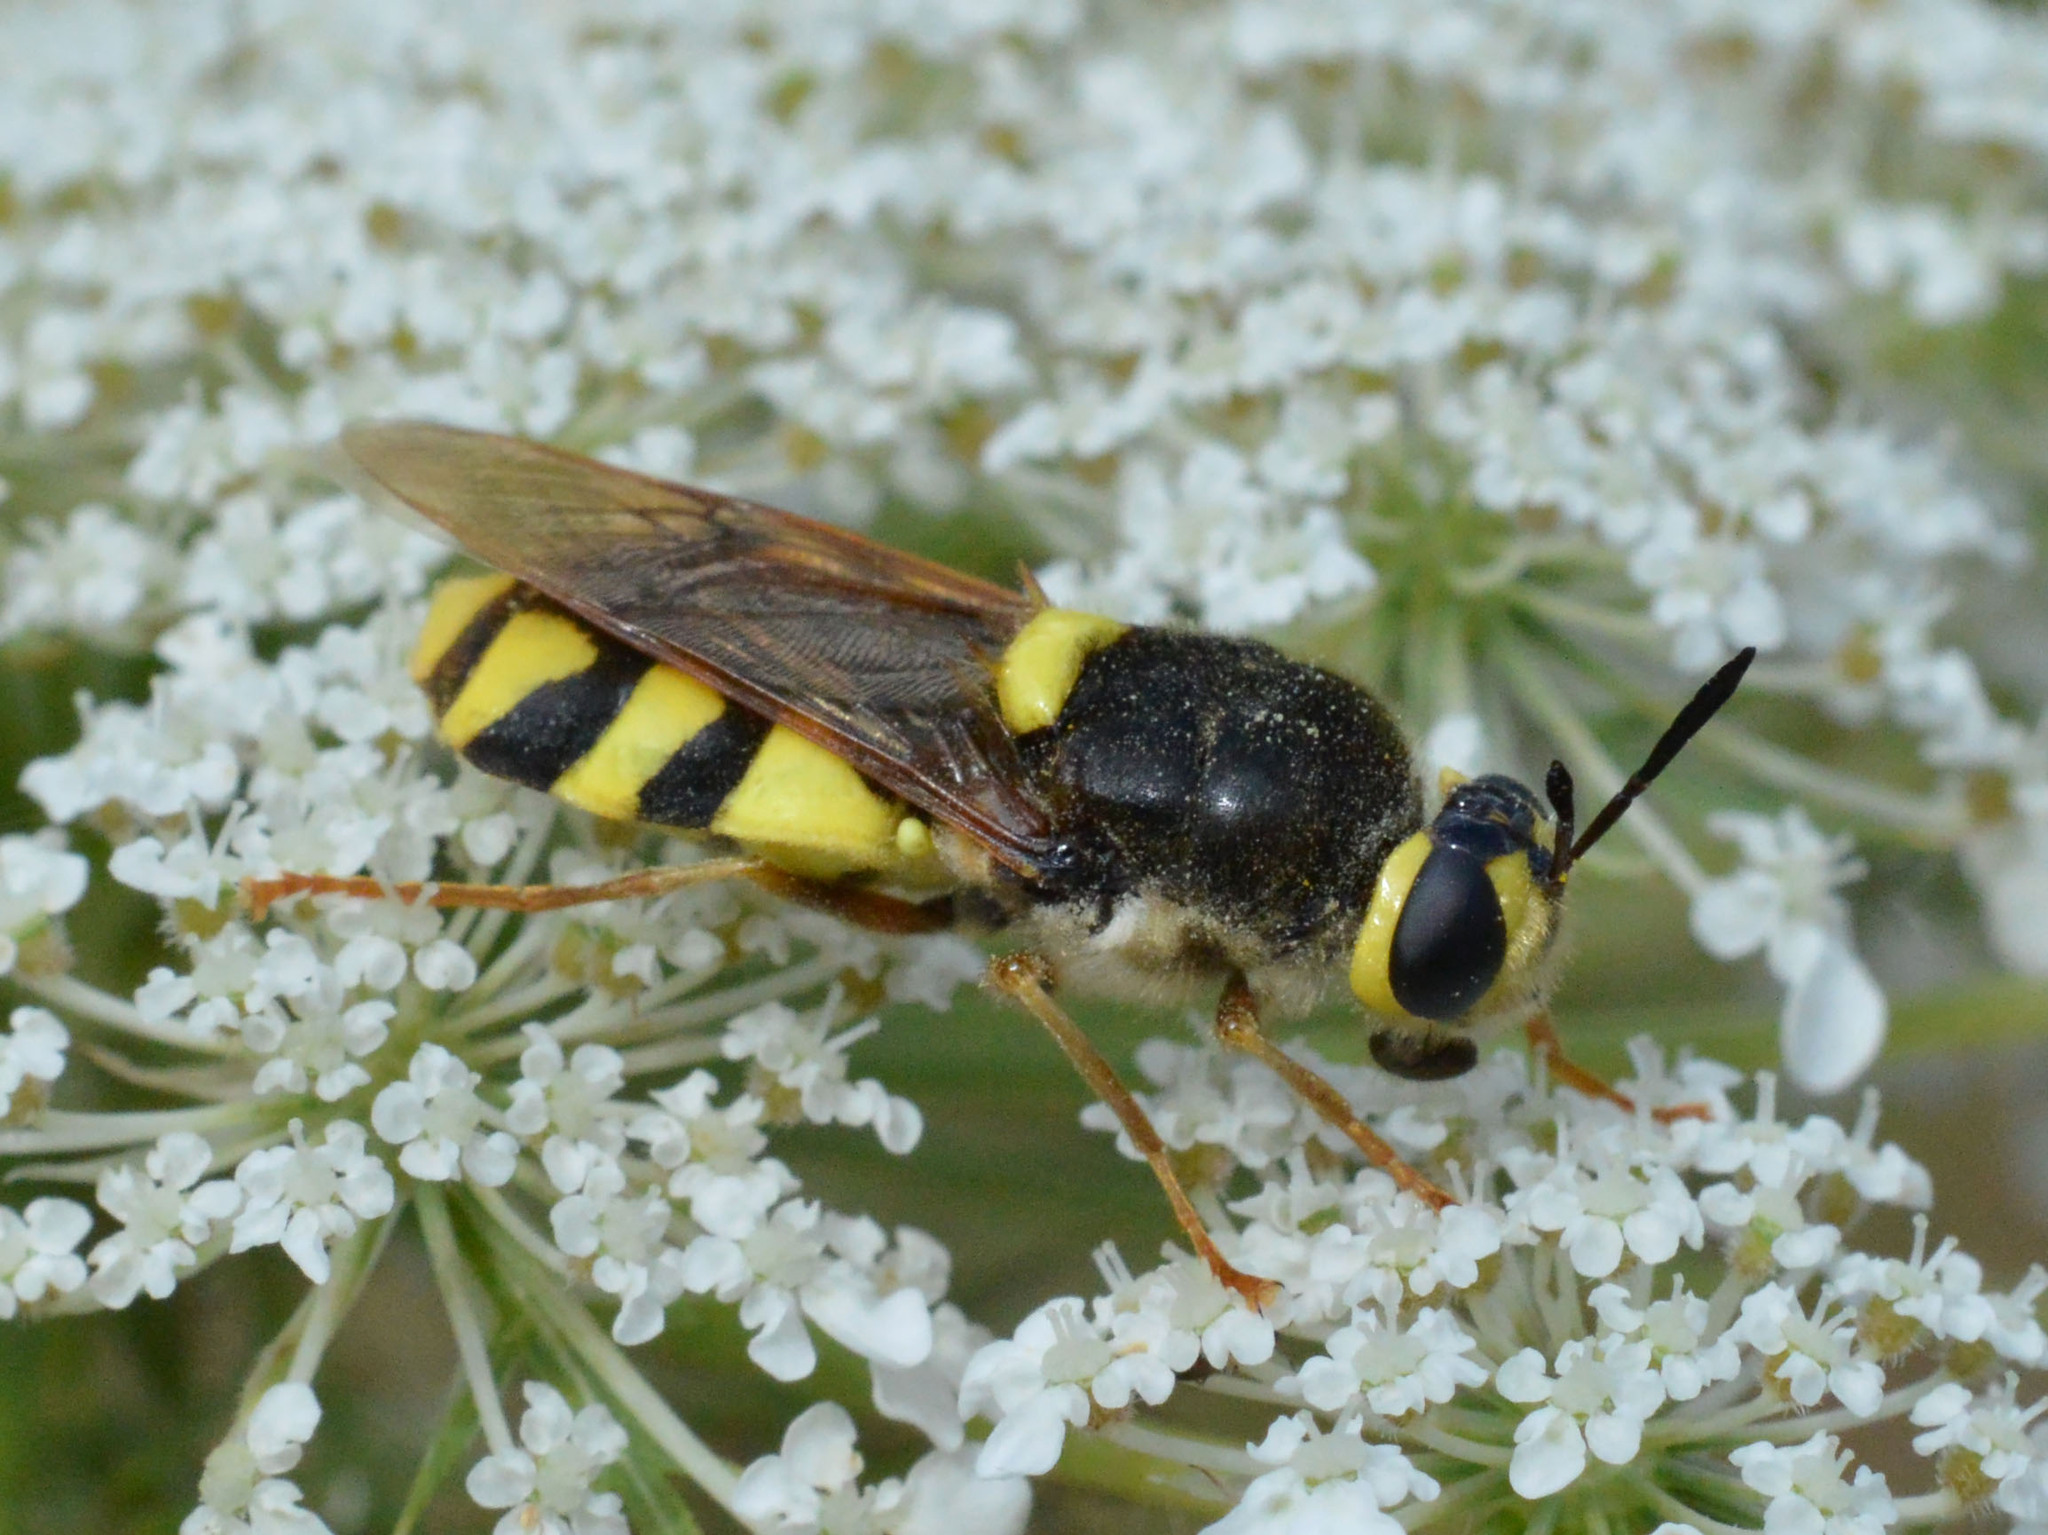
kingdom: Animalia
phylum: Arthropoda
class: Insecta
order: Diptera
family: Stratiomyidae
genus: Stratiomys
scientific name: Stratiomys chamaeleon
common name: Clubbed general
